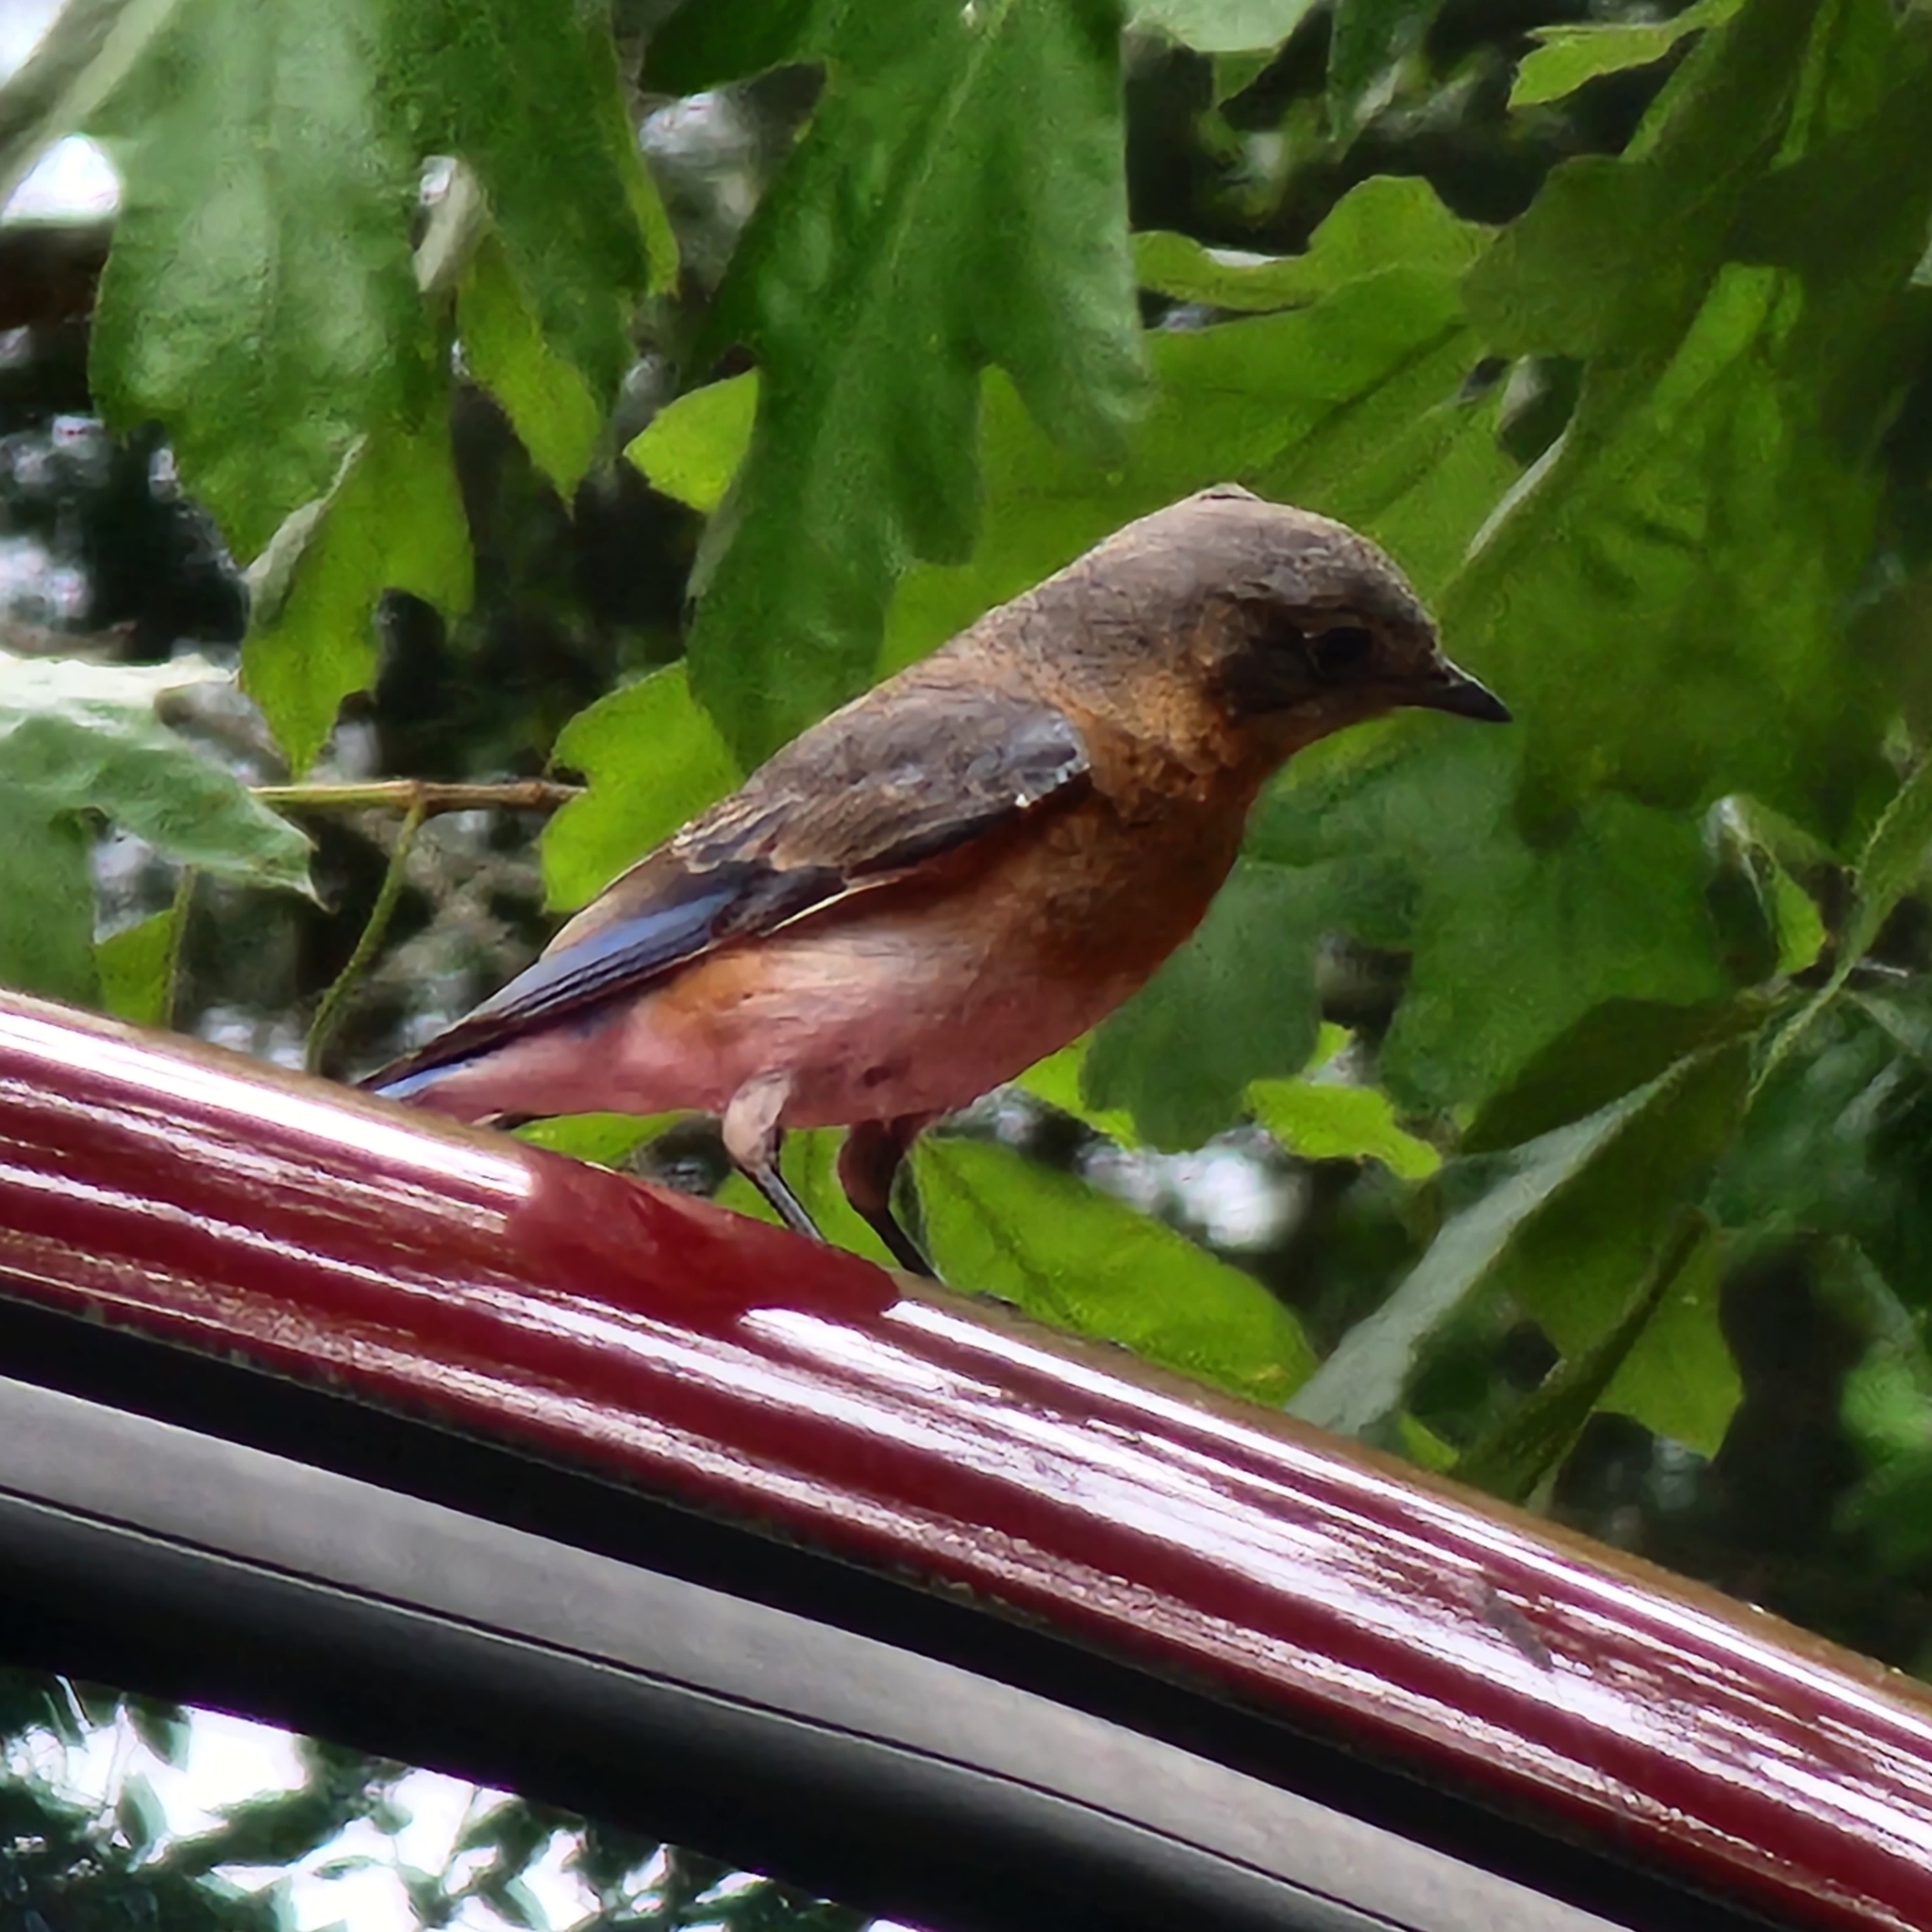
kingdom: Animalia
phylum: Chordata
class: Aves
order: Passeriformes
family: Turdidae
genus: Sialia
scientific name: Sialia sialis
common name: Eastern bluebird
